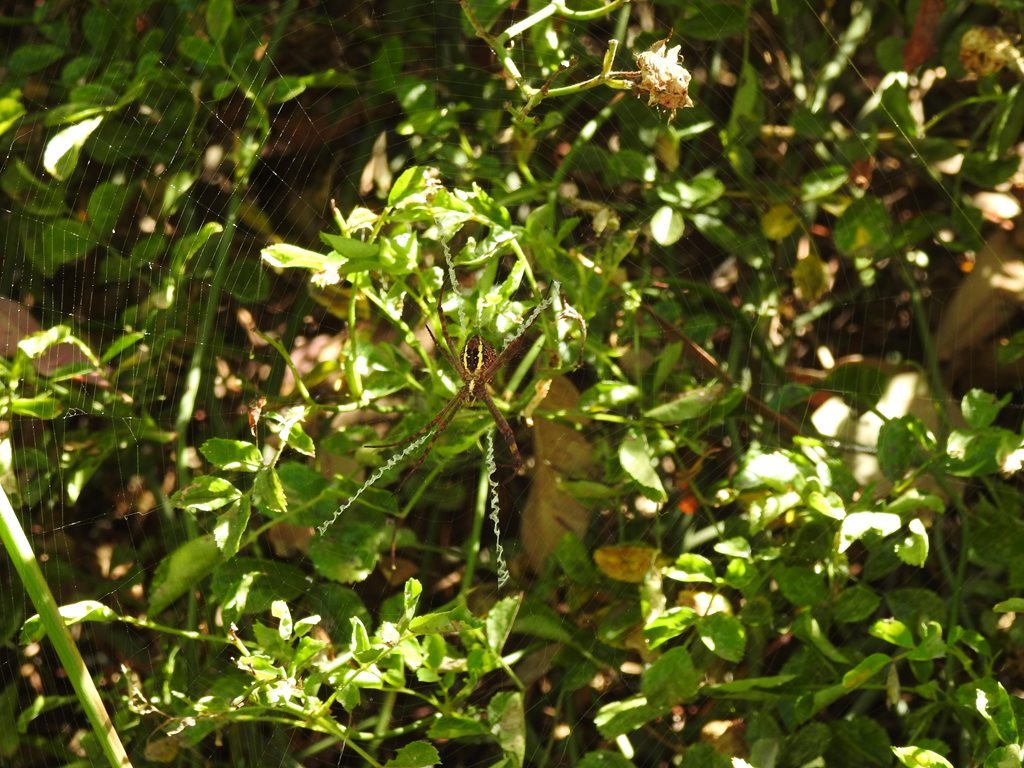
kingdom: Animalia
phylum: Arthropoda
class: Arachnida
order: Araneae
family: Araneidae
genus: Argiope
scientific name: Argiope keyserlingi
